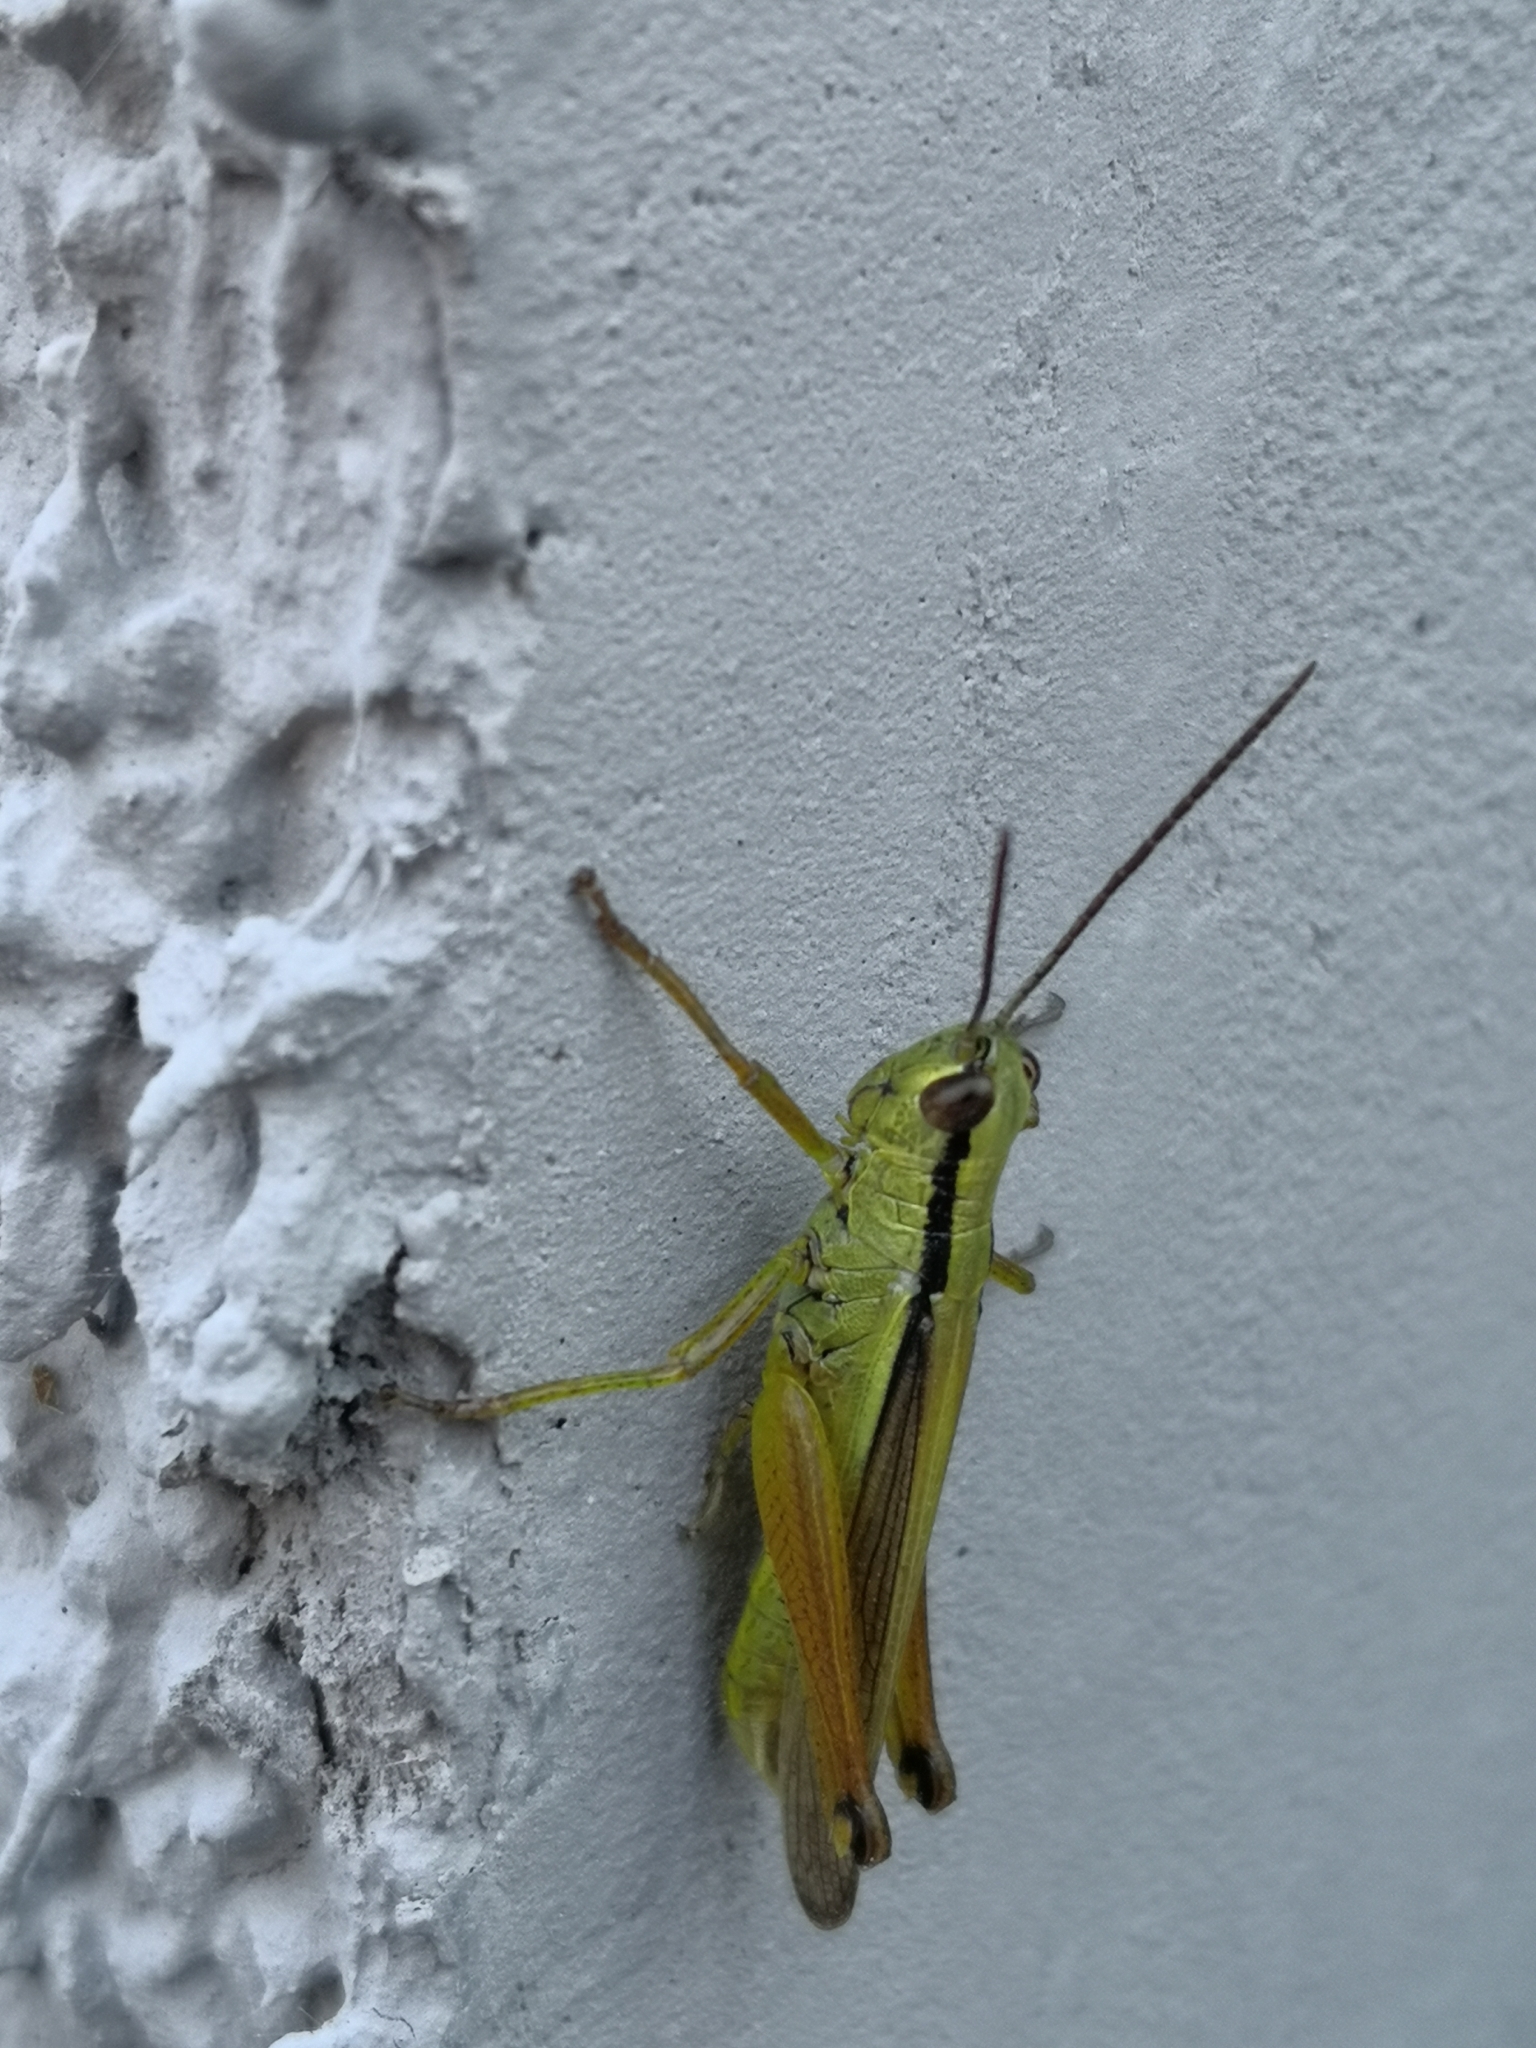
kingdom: Animalia
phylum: Arthropoda
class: Insecta
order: Orthoptera
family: Acrididae
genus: Mecostethus
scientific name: Mecostethus parapleurus
